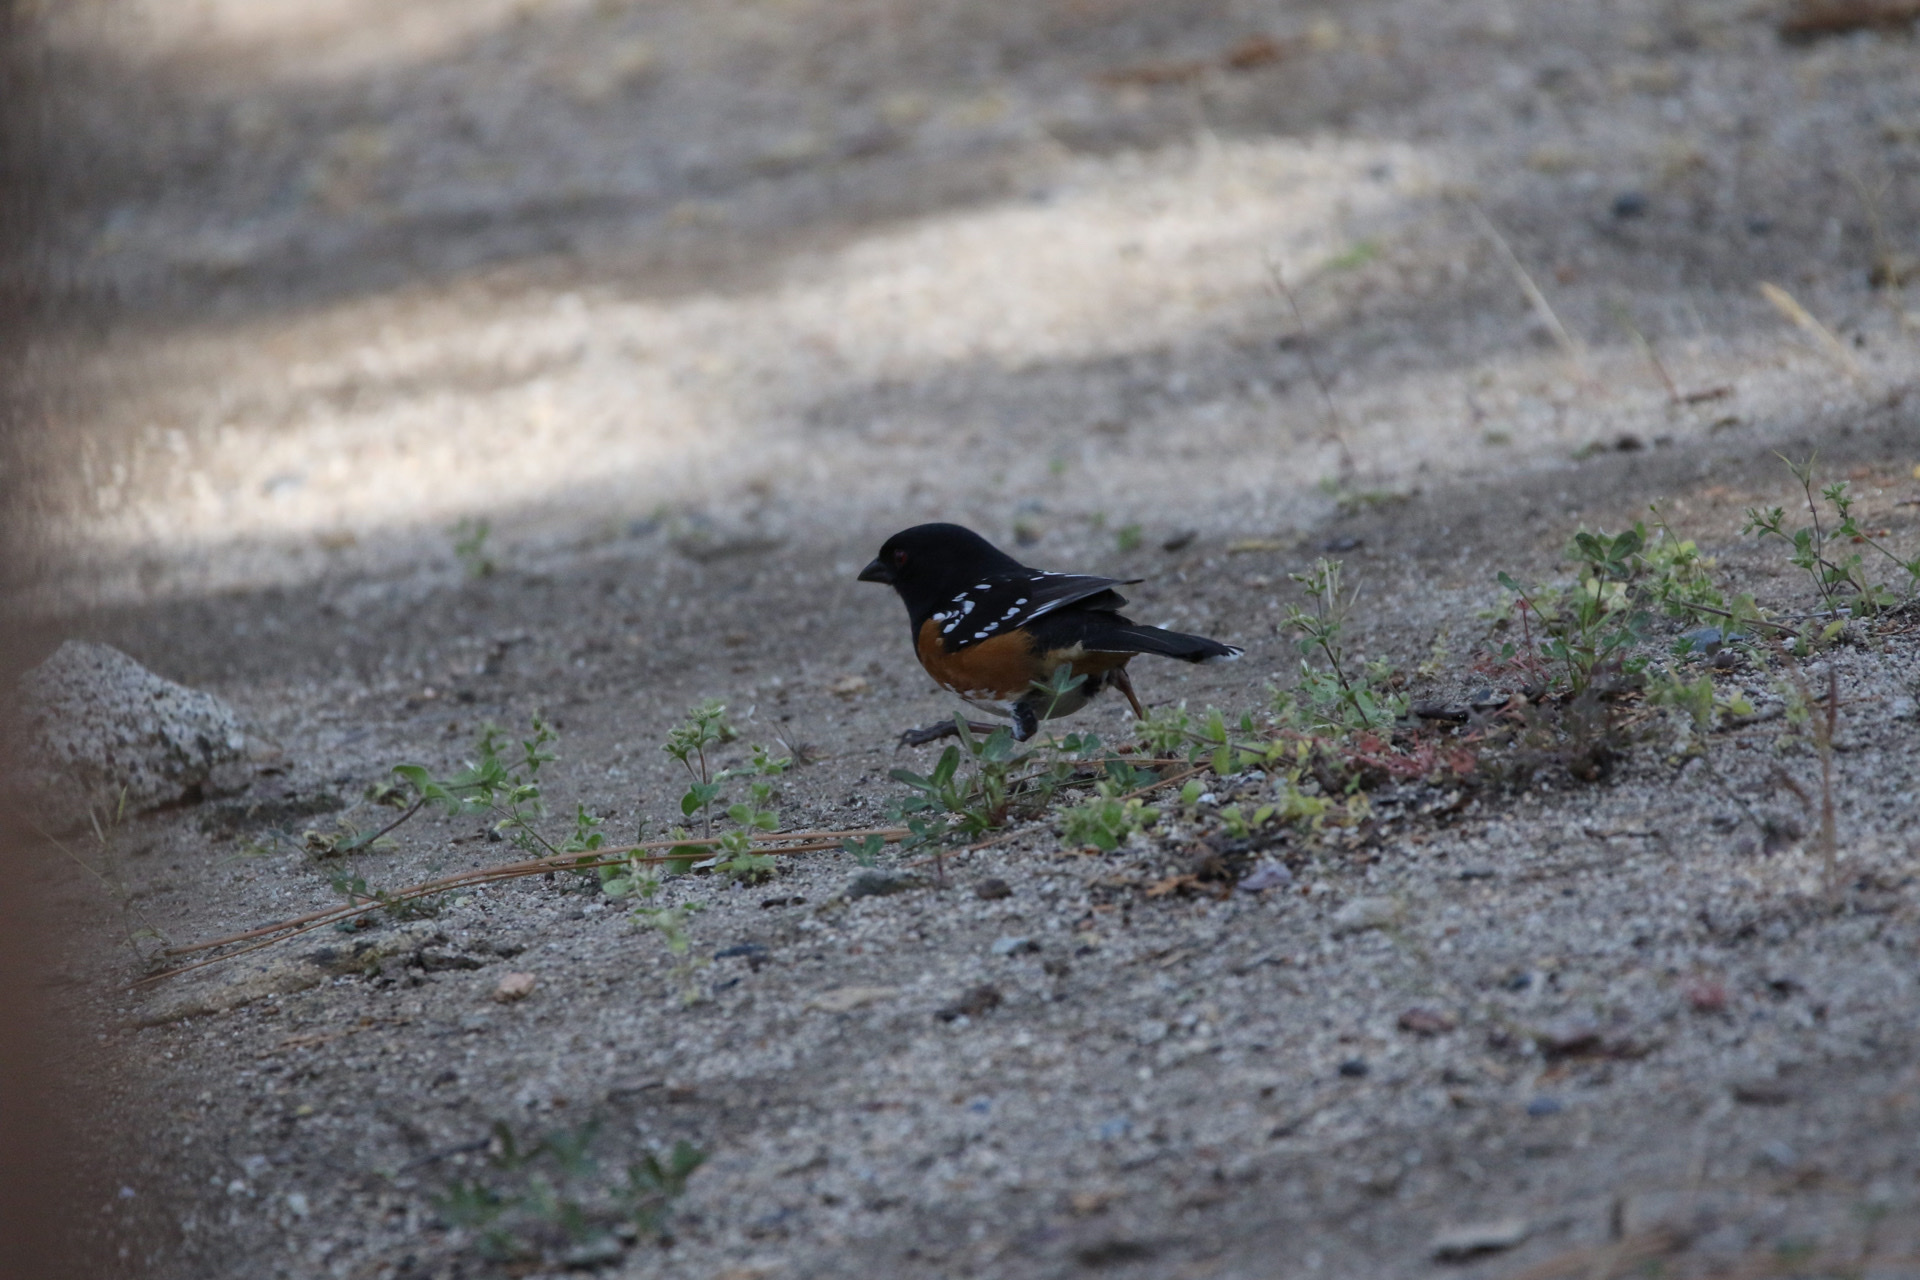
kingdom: Animalia
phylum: Chordata
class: Aves
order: Passeriformes
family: Passerellidae
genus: Pipilo
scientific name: Pipilo maculatus
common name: Spotted towhee
